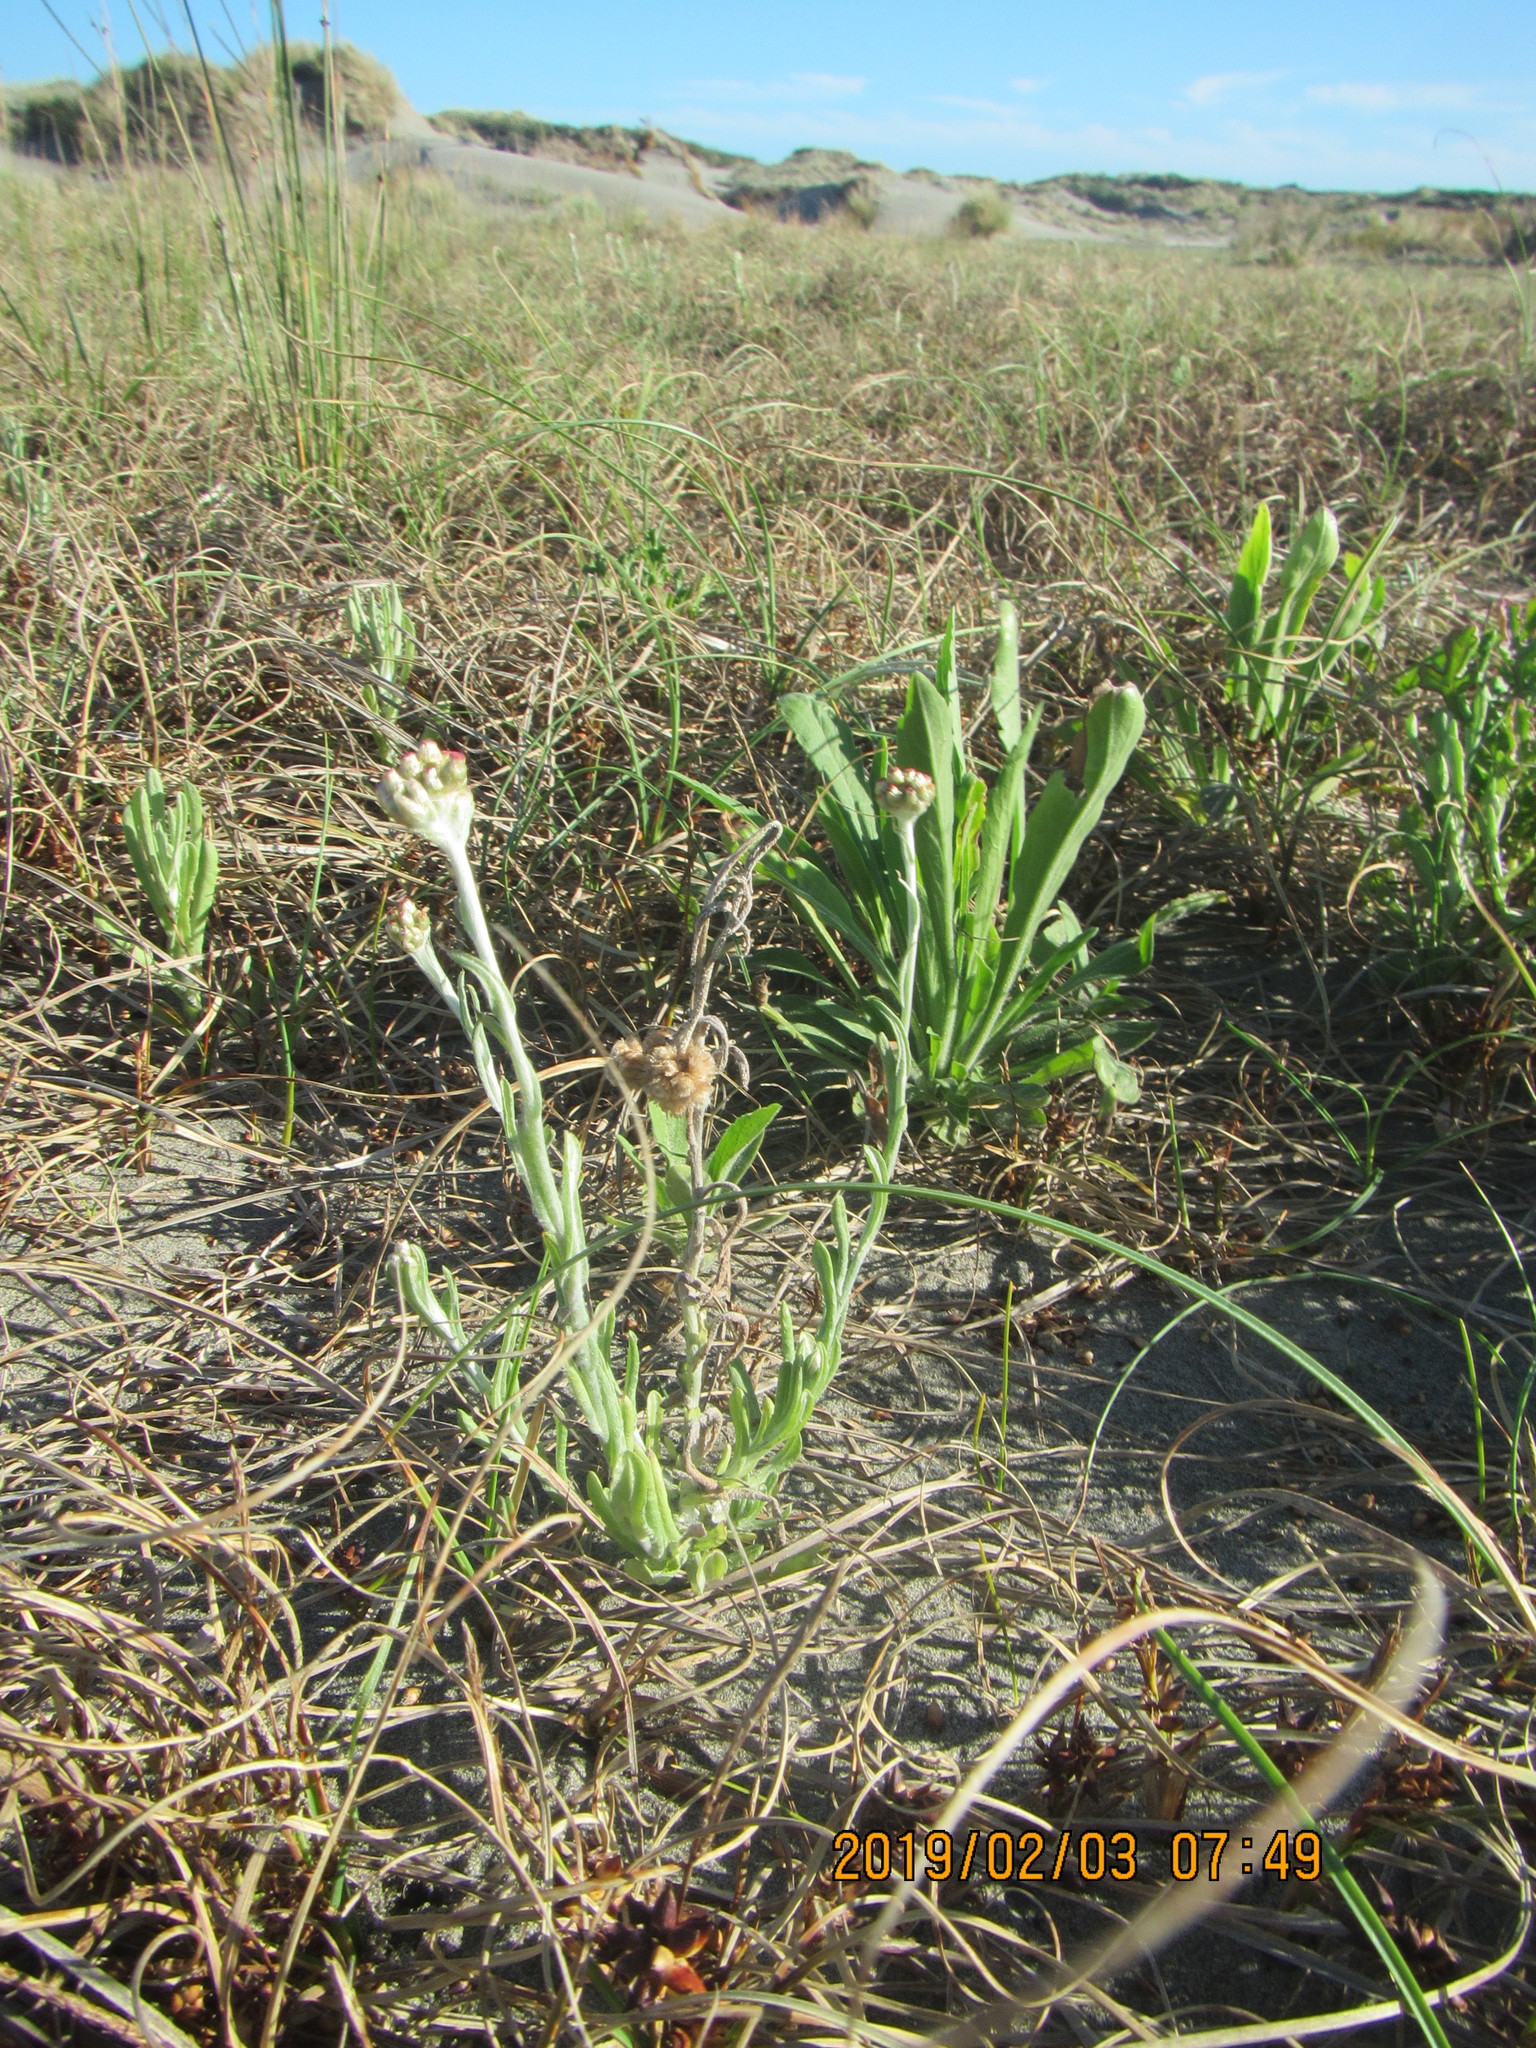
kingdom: Plantae
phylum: Tracheophyta
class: Magnoliopsida
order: Asterales
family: Asteraceae
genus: Helichrysum
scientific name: Helichrysum luteoalbum
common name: Daisy
